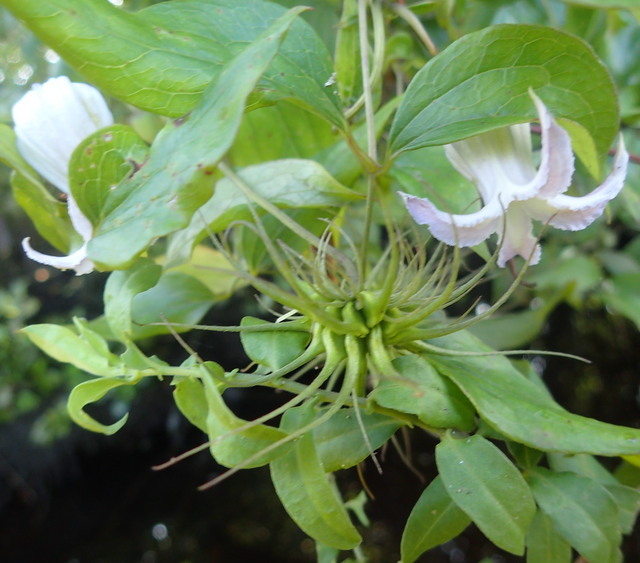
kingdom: Plantae
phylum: Tracheophyta
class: Magnoliopsida
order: Ranunculales
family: Ranunculaceae
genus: Clematis
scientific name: Clematis crispa
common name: Curly clematis
